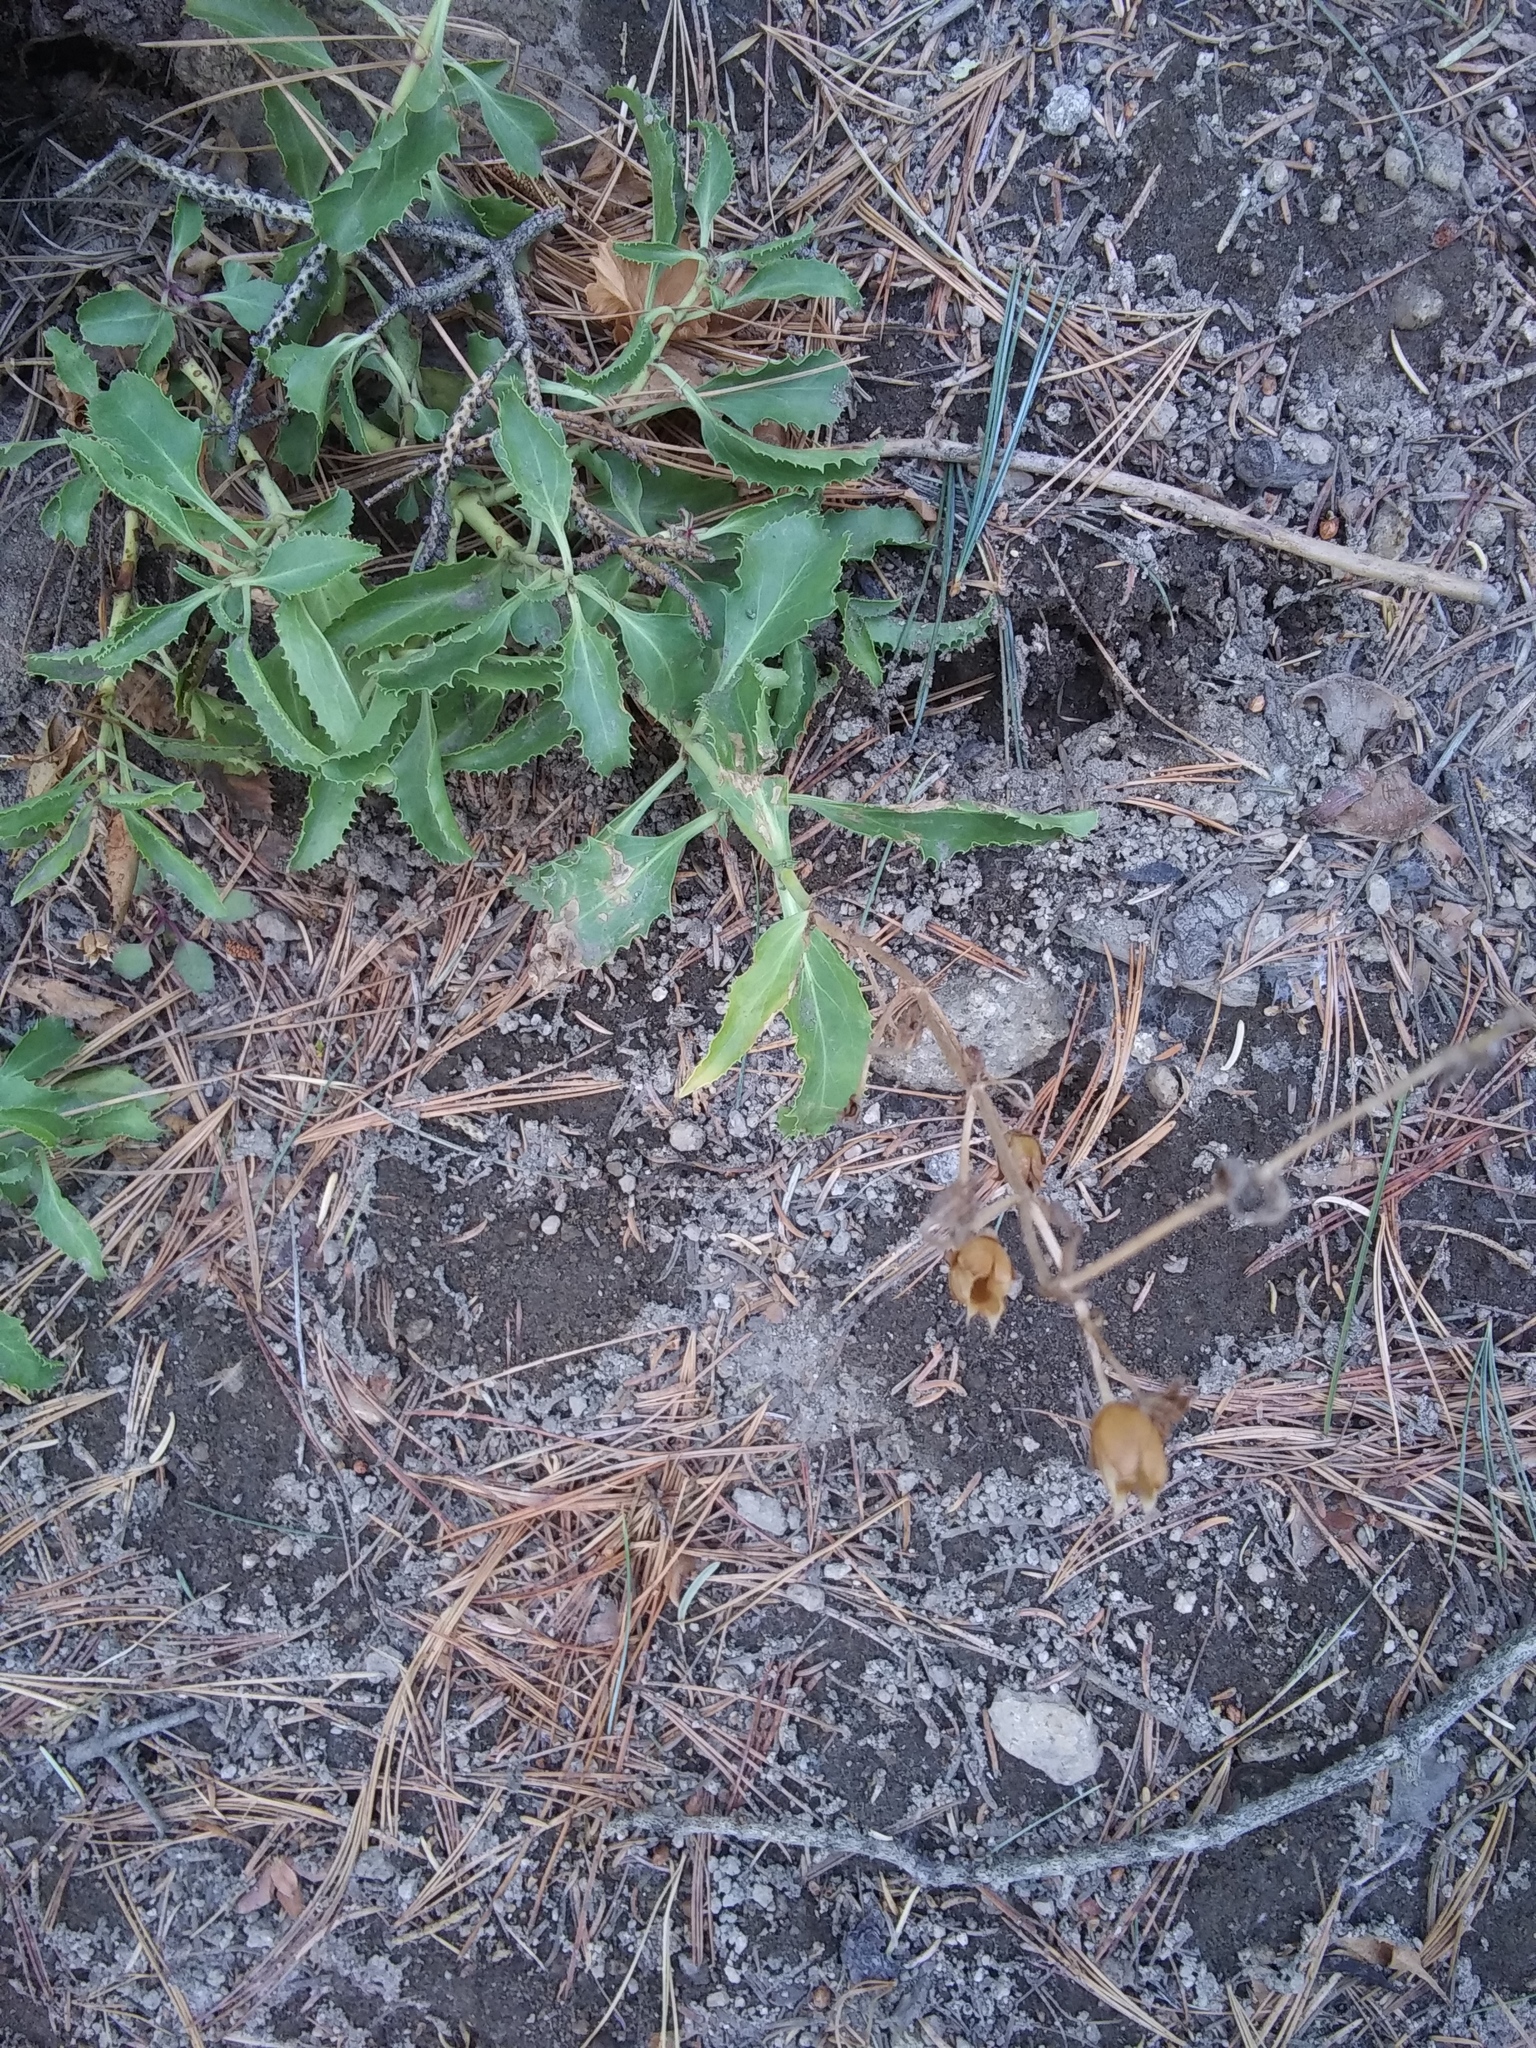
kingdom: Plantae
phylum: Tracheophyta
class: Magnoliopsida
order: Lamiales
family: Plantaginaceae
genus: Penstemon
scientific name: Penstemon grinnellii
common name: Grinnell's beardtongue
